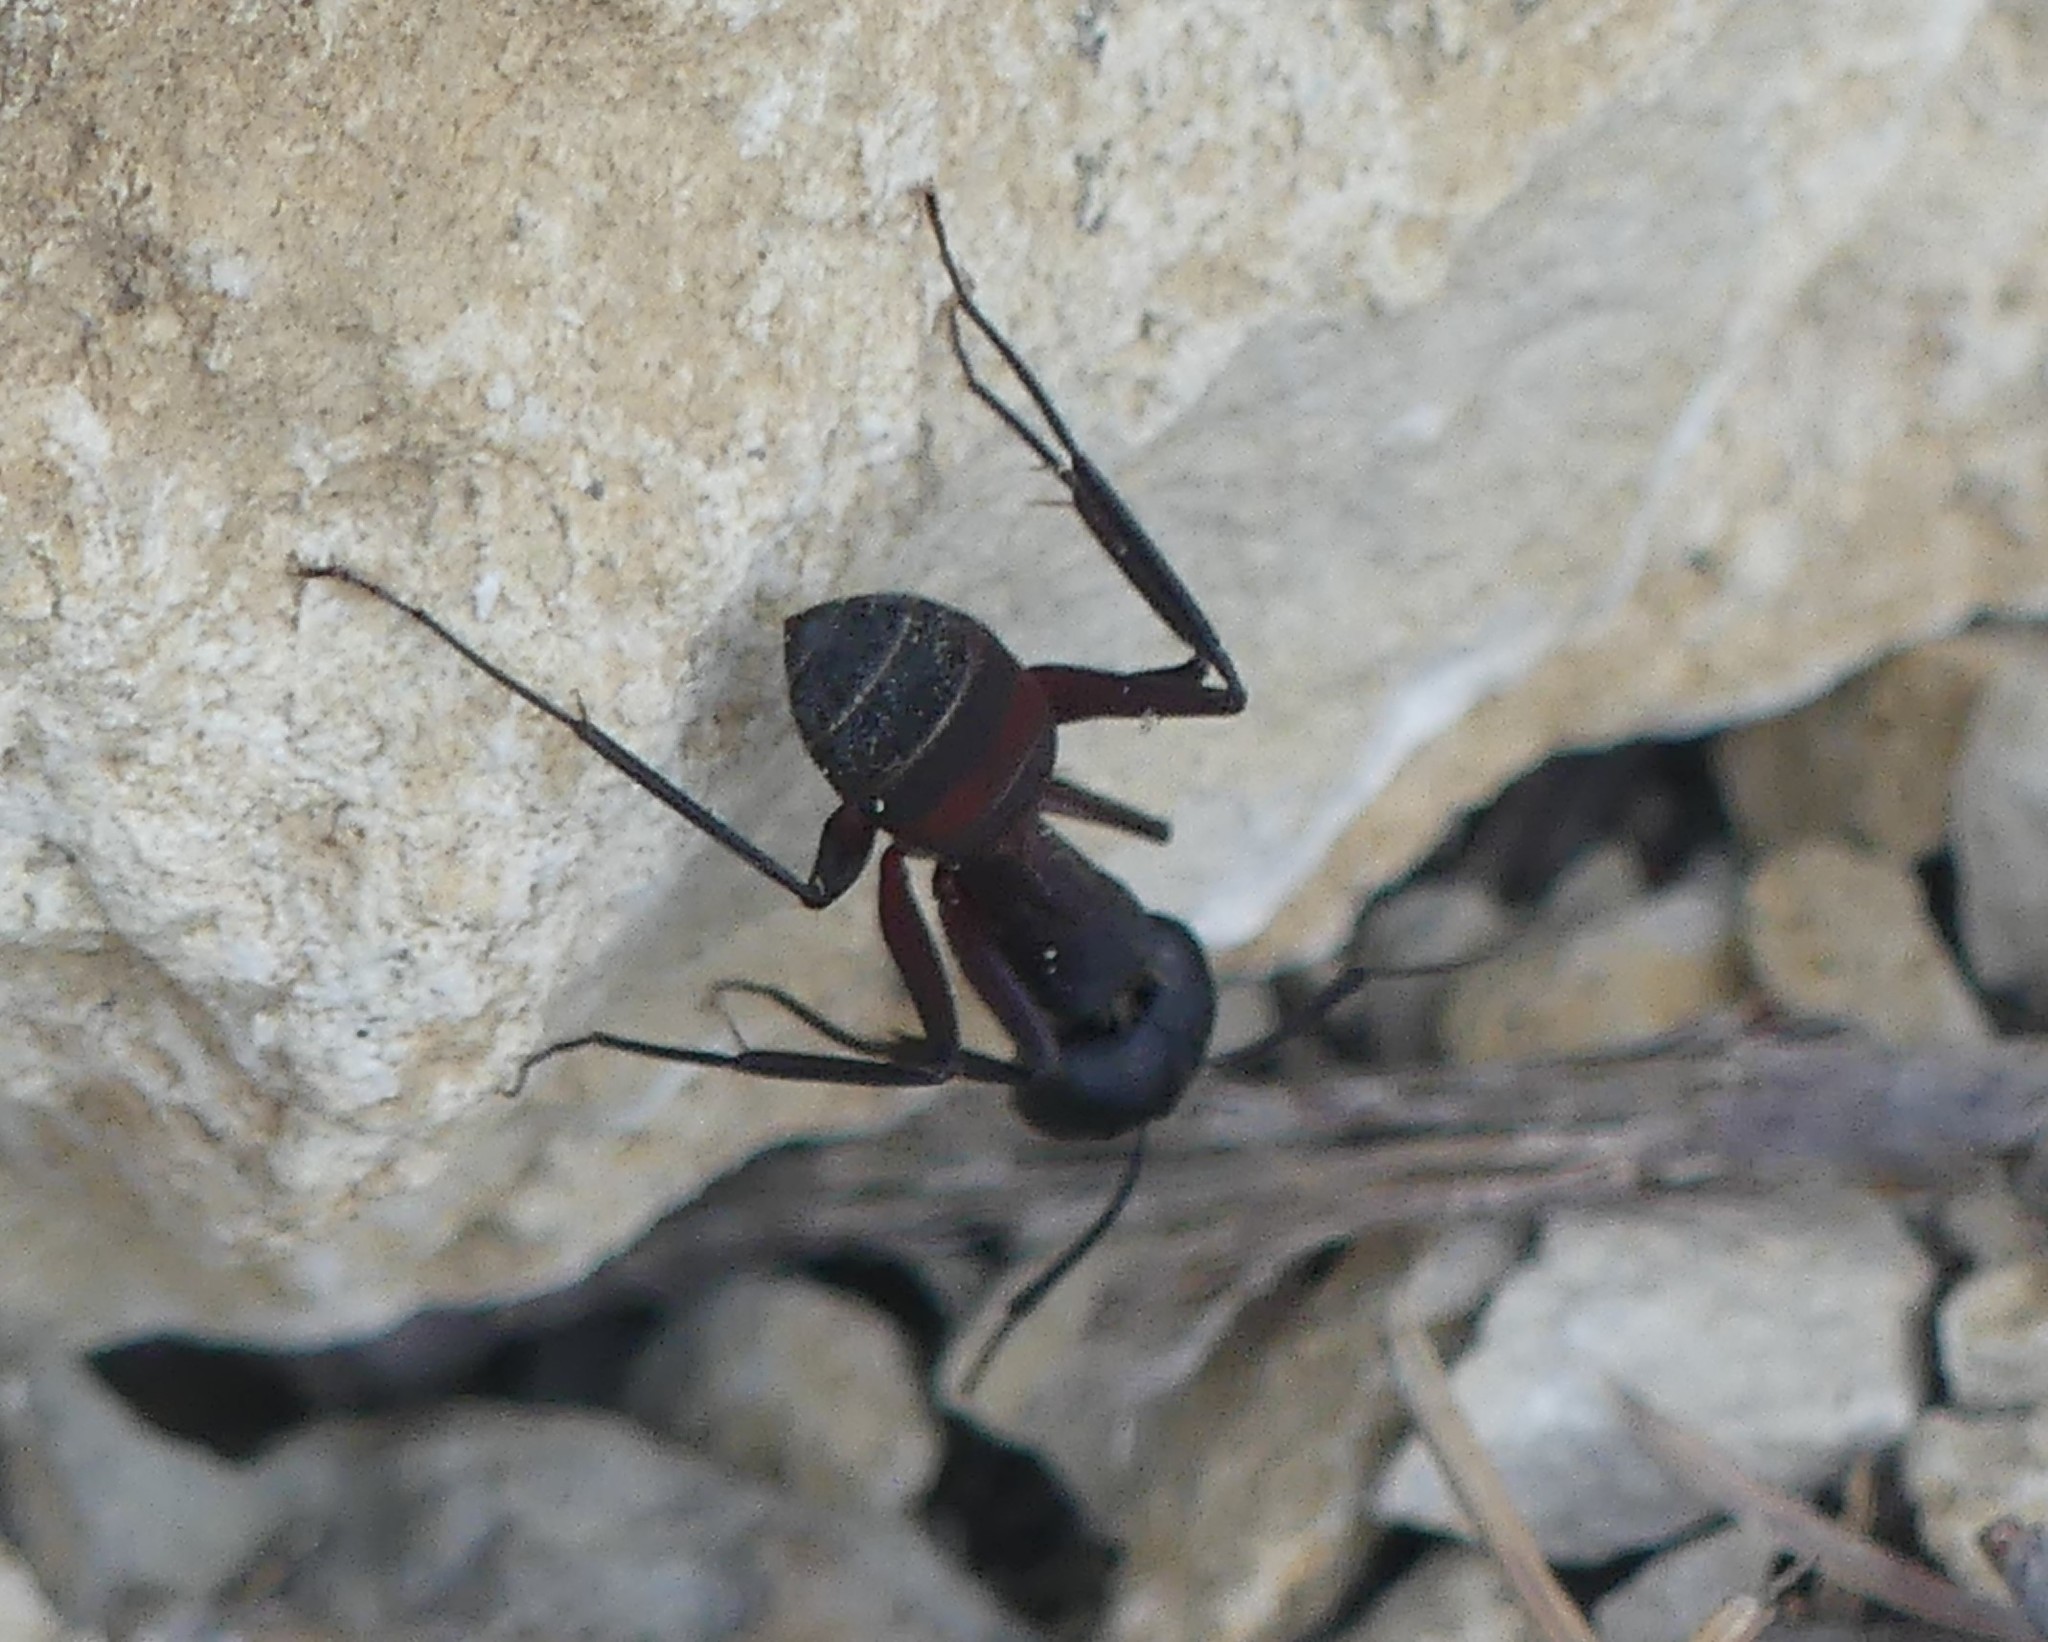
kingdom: Animalia
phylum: Arthropoda
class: Insecta
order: Hymenoptera
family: Formicidae
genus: Camponotus
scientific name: Camponotus cruentatus
